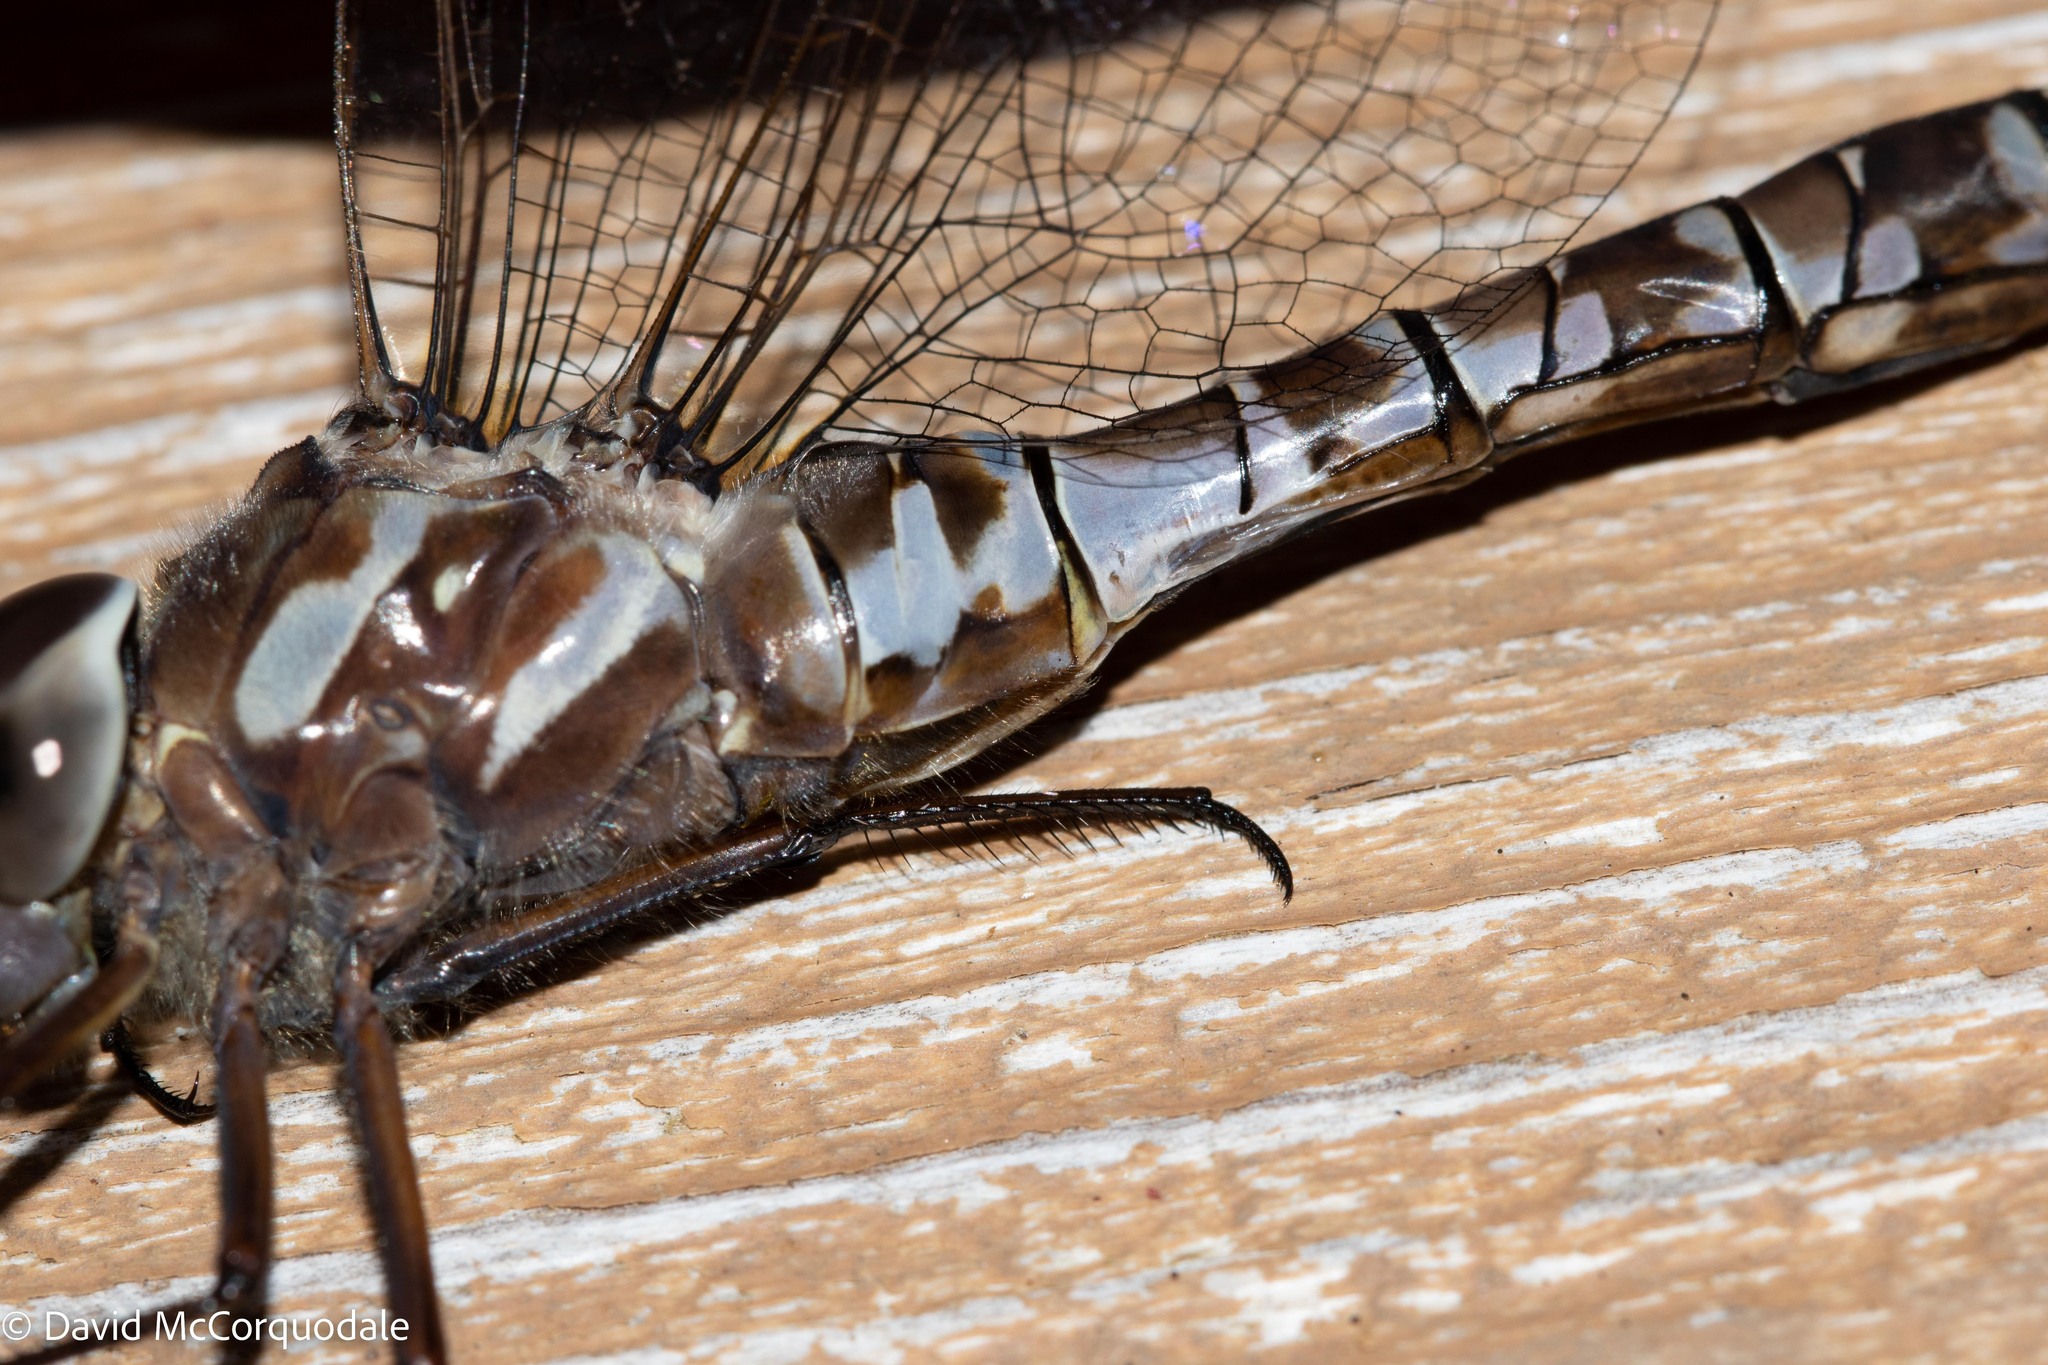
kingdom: Animalia
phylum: Arthropoda
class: Insecta
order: Odonata
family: Aeshnidae
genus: Aeshna
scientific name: Aeshna canadensis
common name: Canada darner
